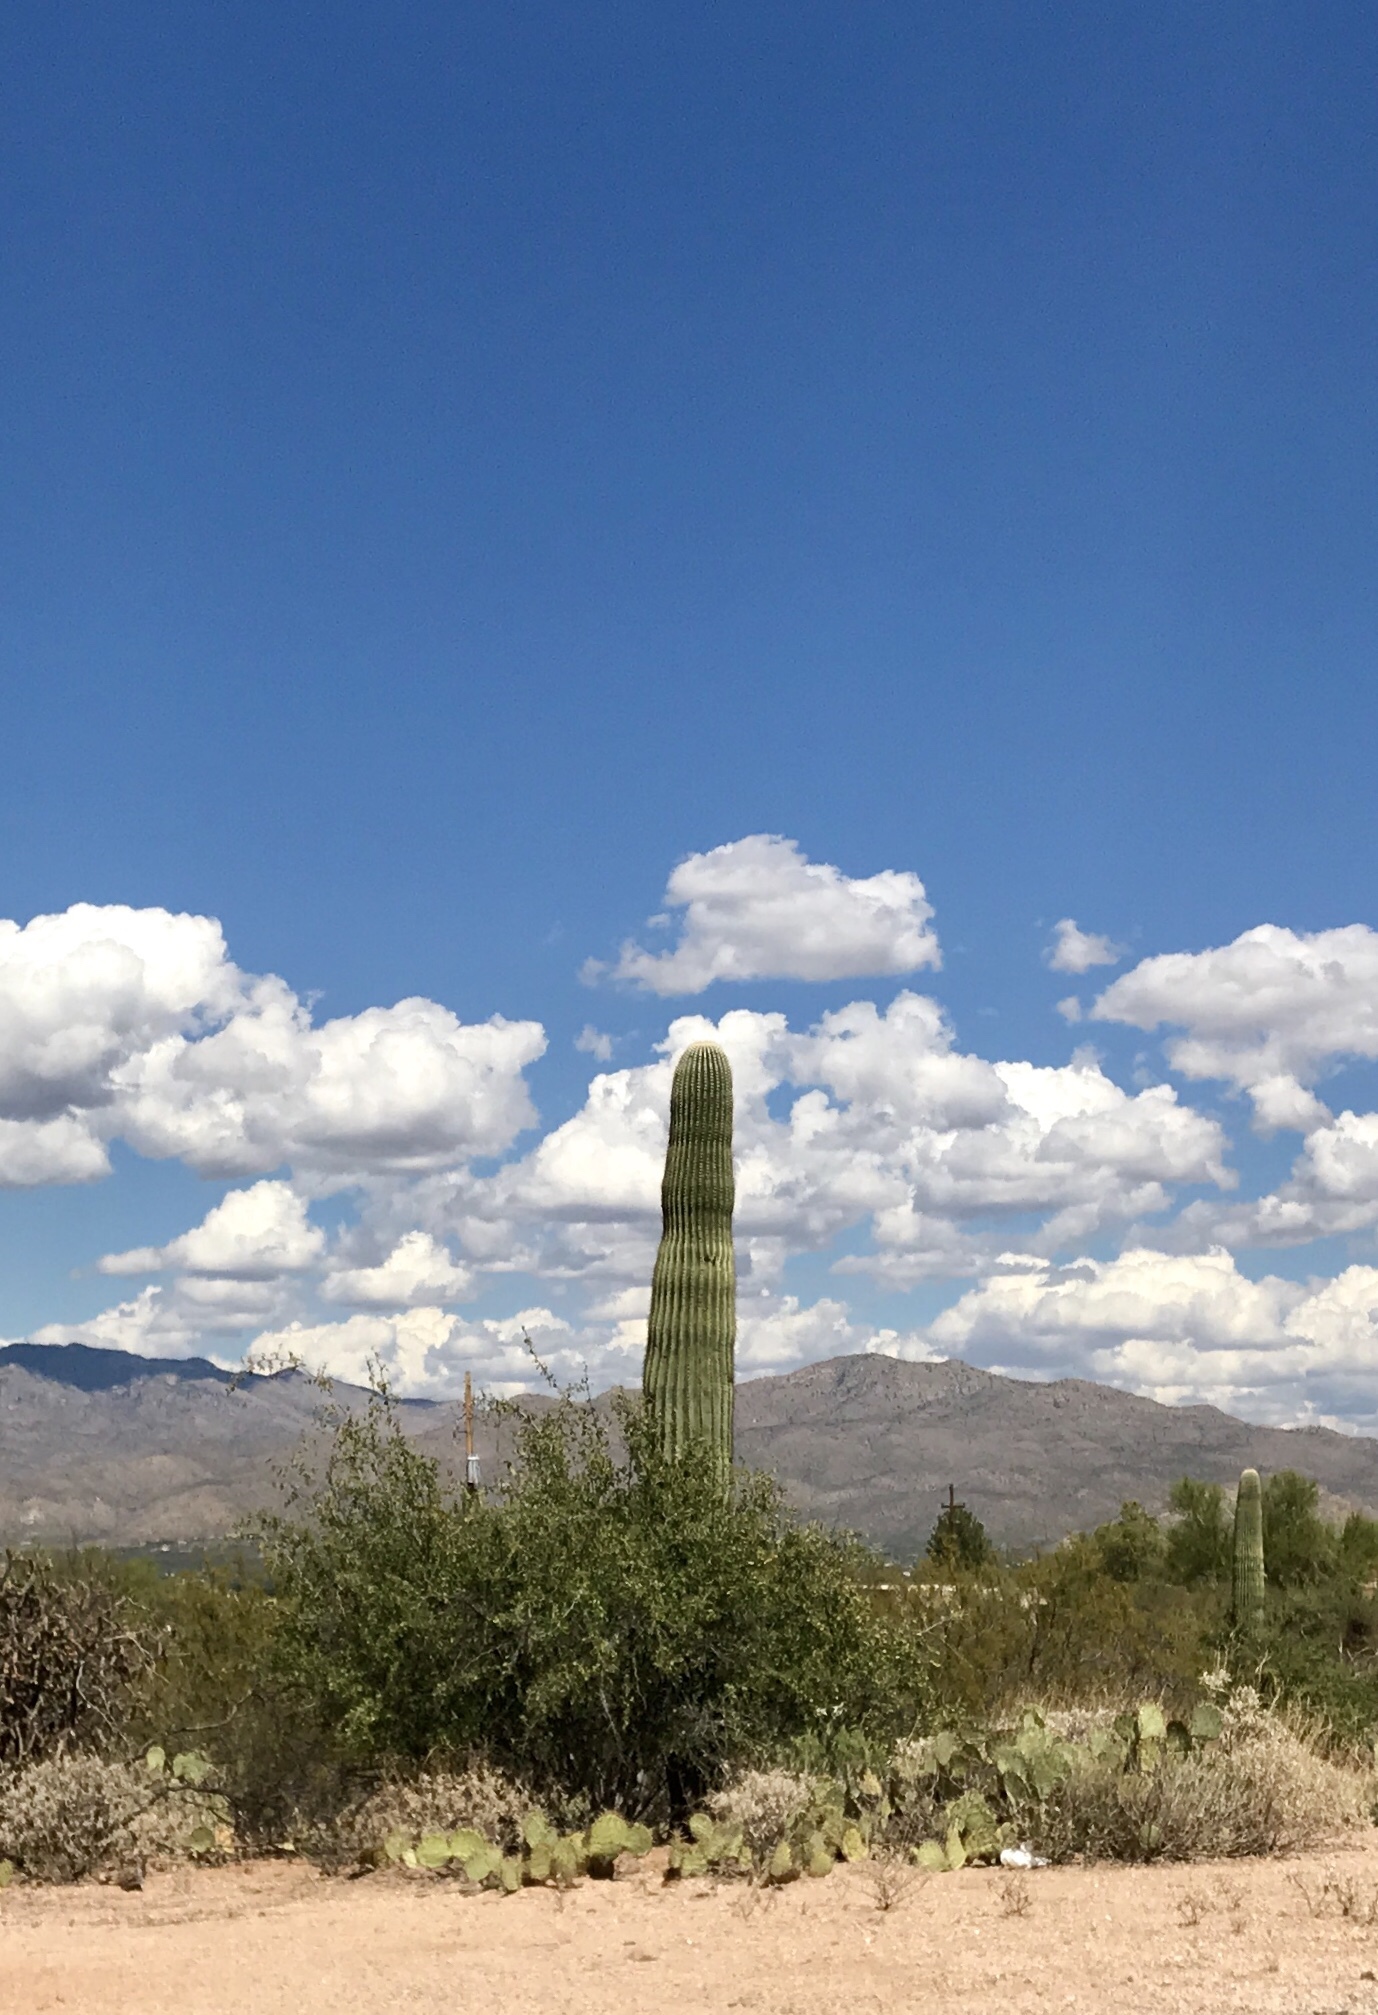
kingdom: Plantae
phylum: Tracheophyta
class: Magnoliopsida
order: Caryophyllales
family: Cactaceae
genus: Carnegiea
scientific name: Carnegiea gigantea
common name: Saguaro
